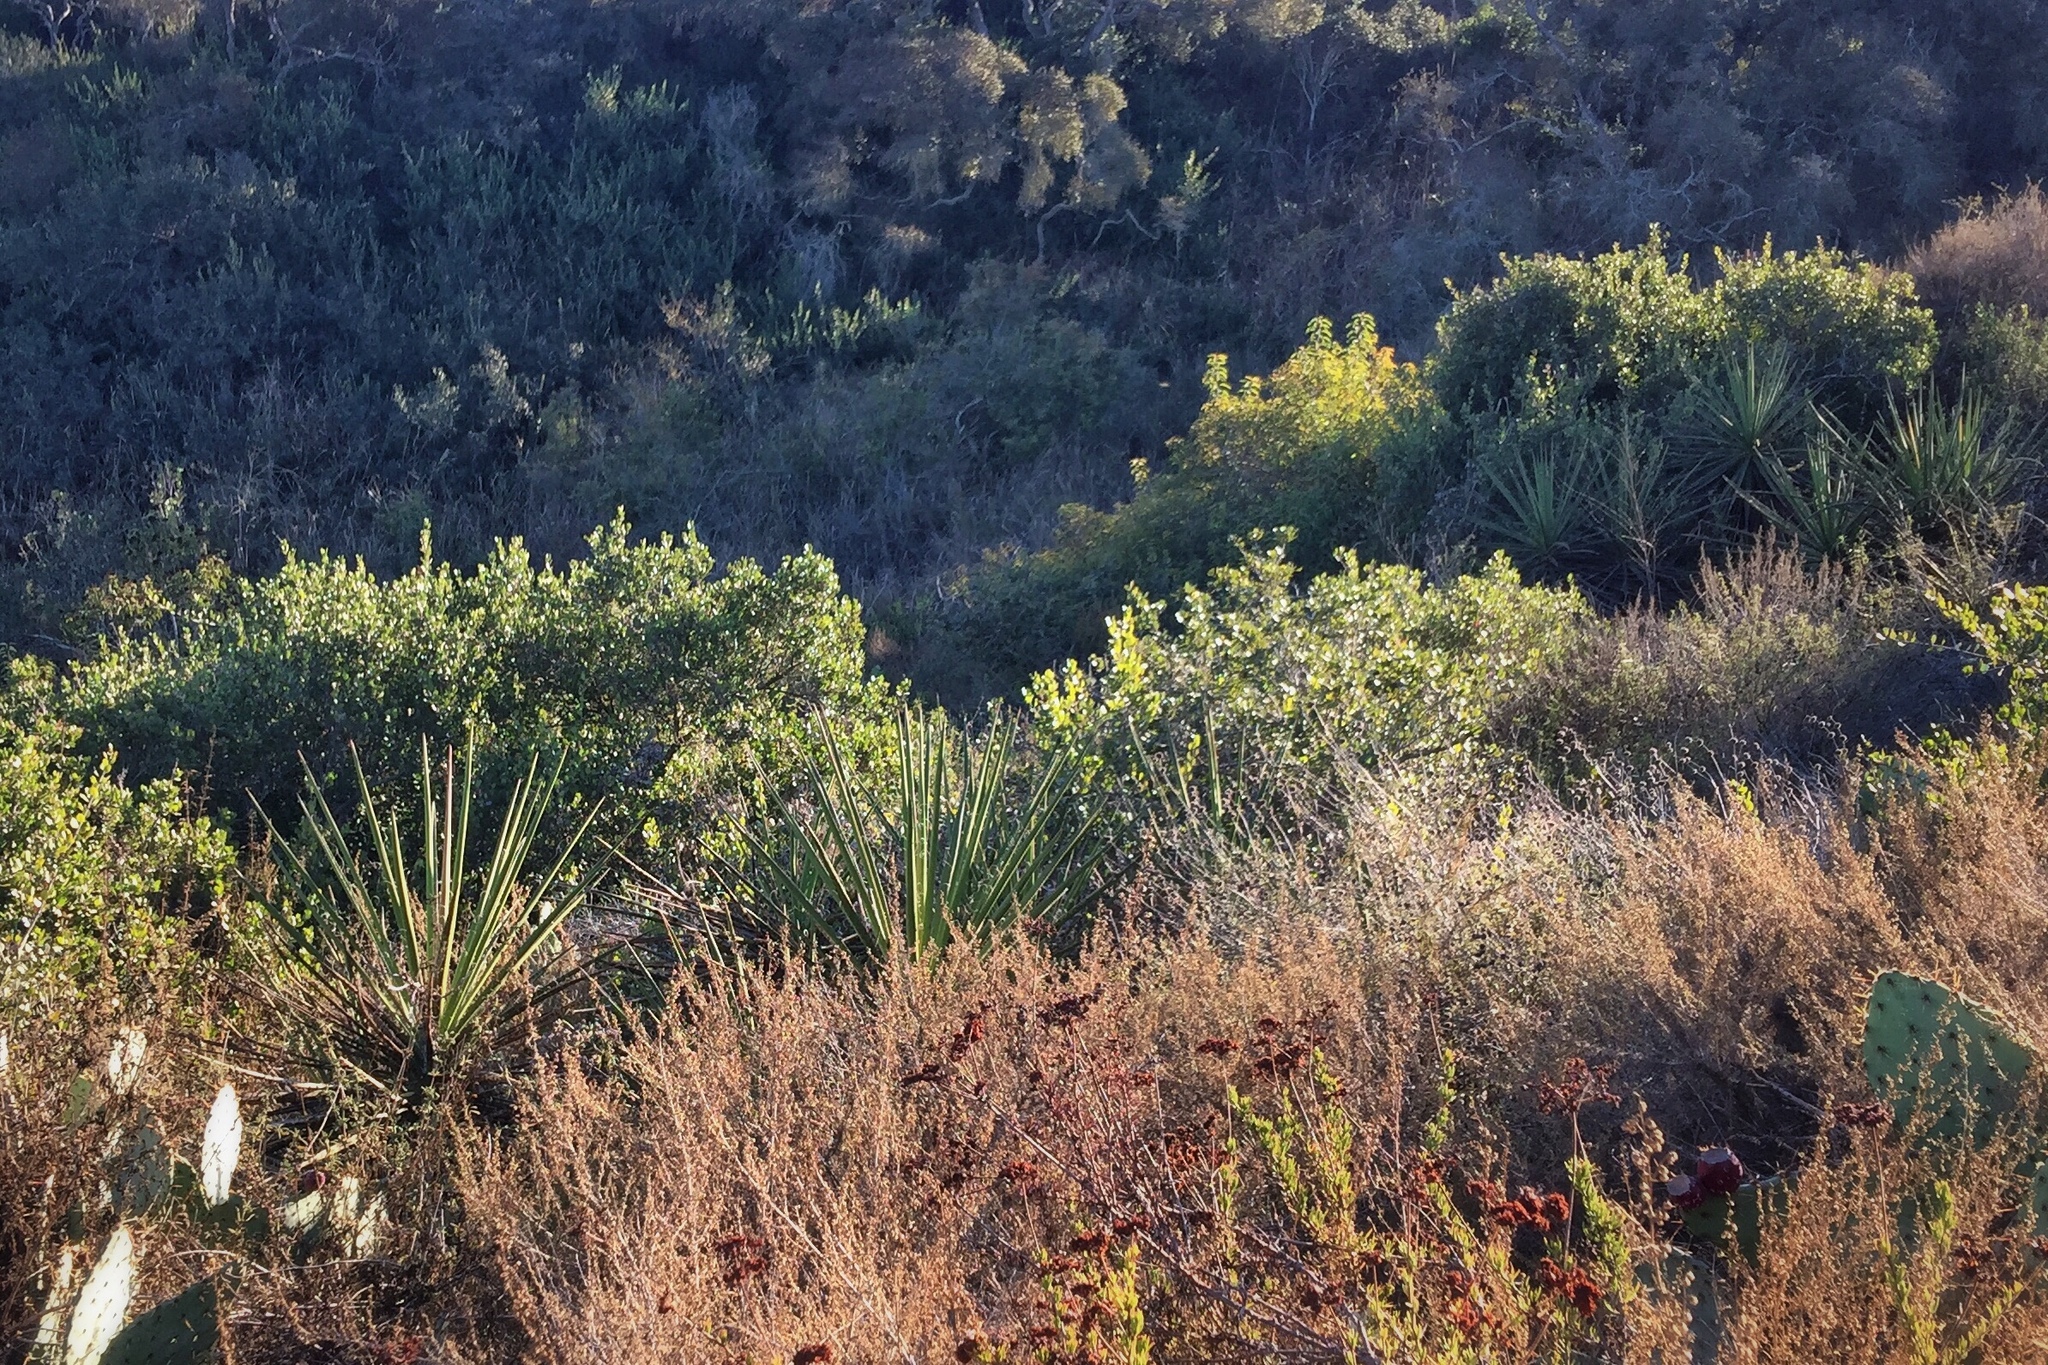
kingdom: Plantae
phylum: Tracheophyta
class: Liliopsida
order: Asparagales
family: Asparagaceae
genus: Yucca
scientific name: Yucca schidigera
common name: Mojave yucca
